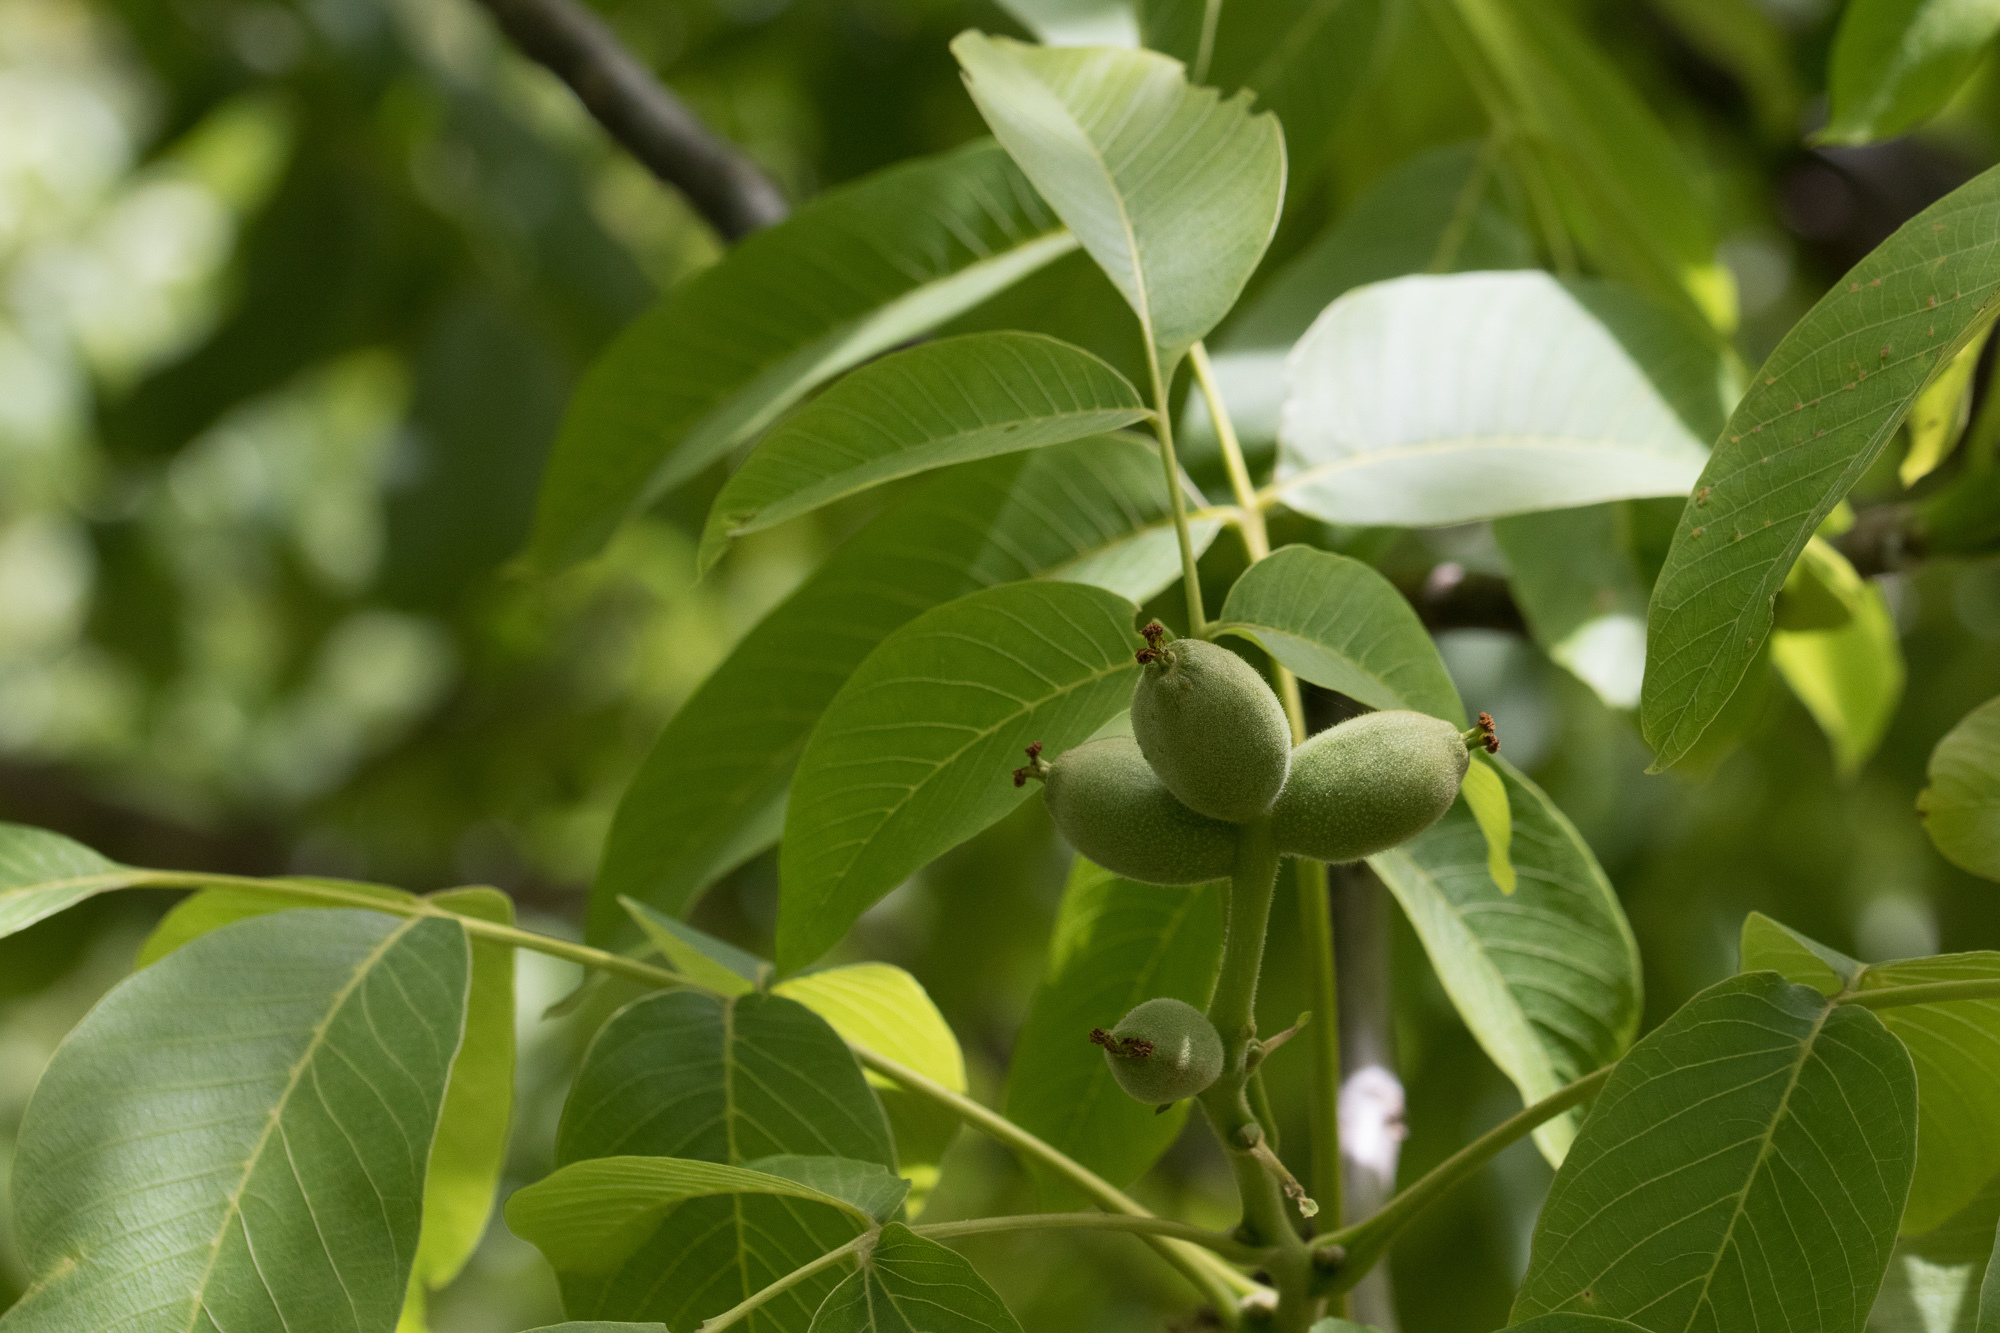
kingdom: Plantae
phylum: Tracheophyta
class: Magnoliopsida
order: Fagales
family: Juglandaceae
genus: Juglans
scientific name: Juglans regia
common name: Walnut
